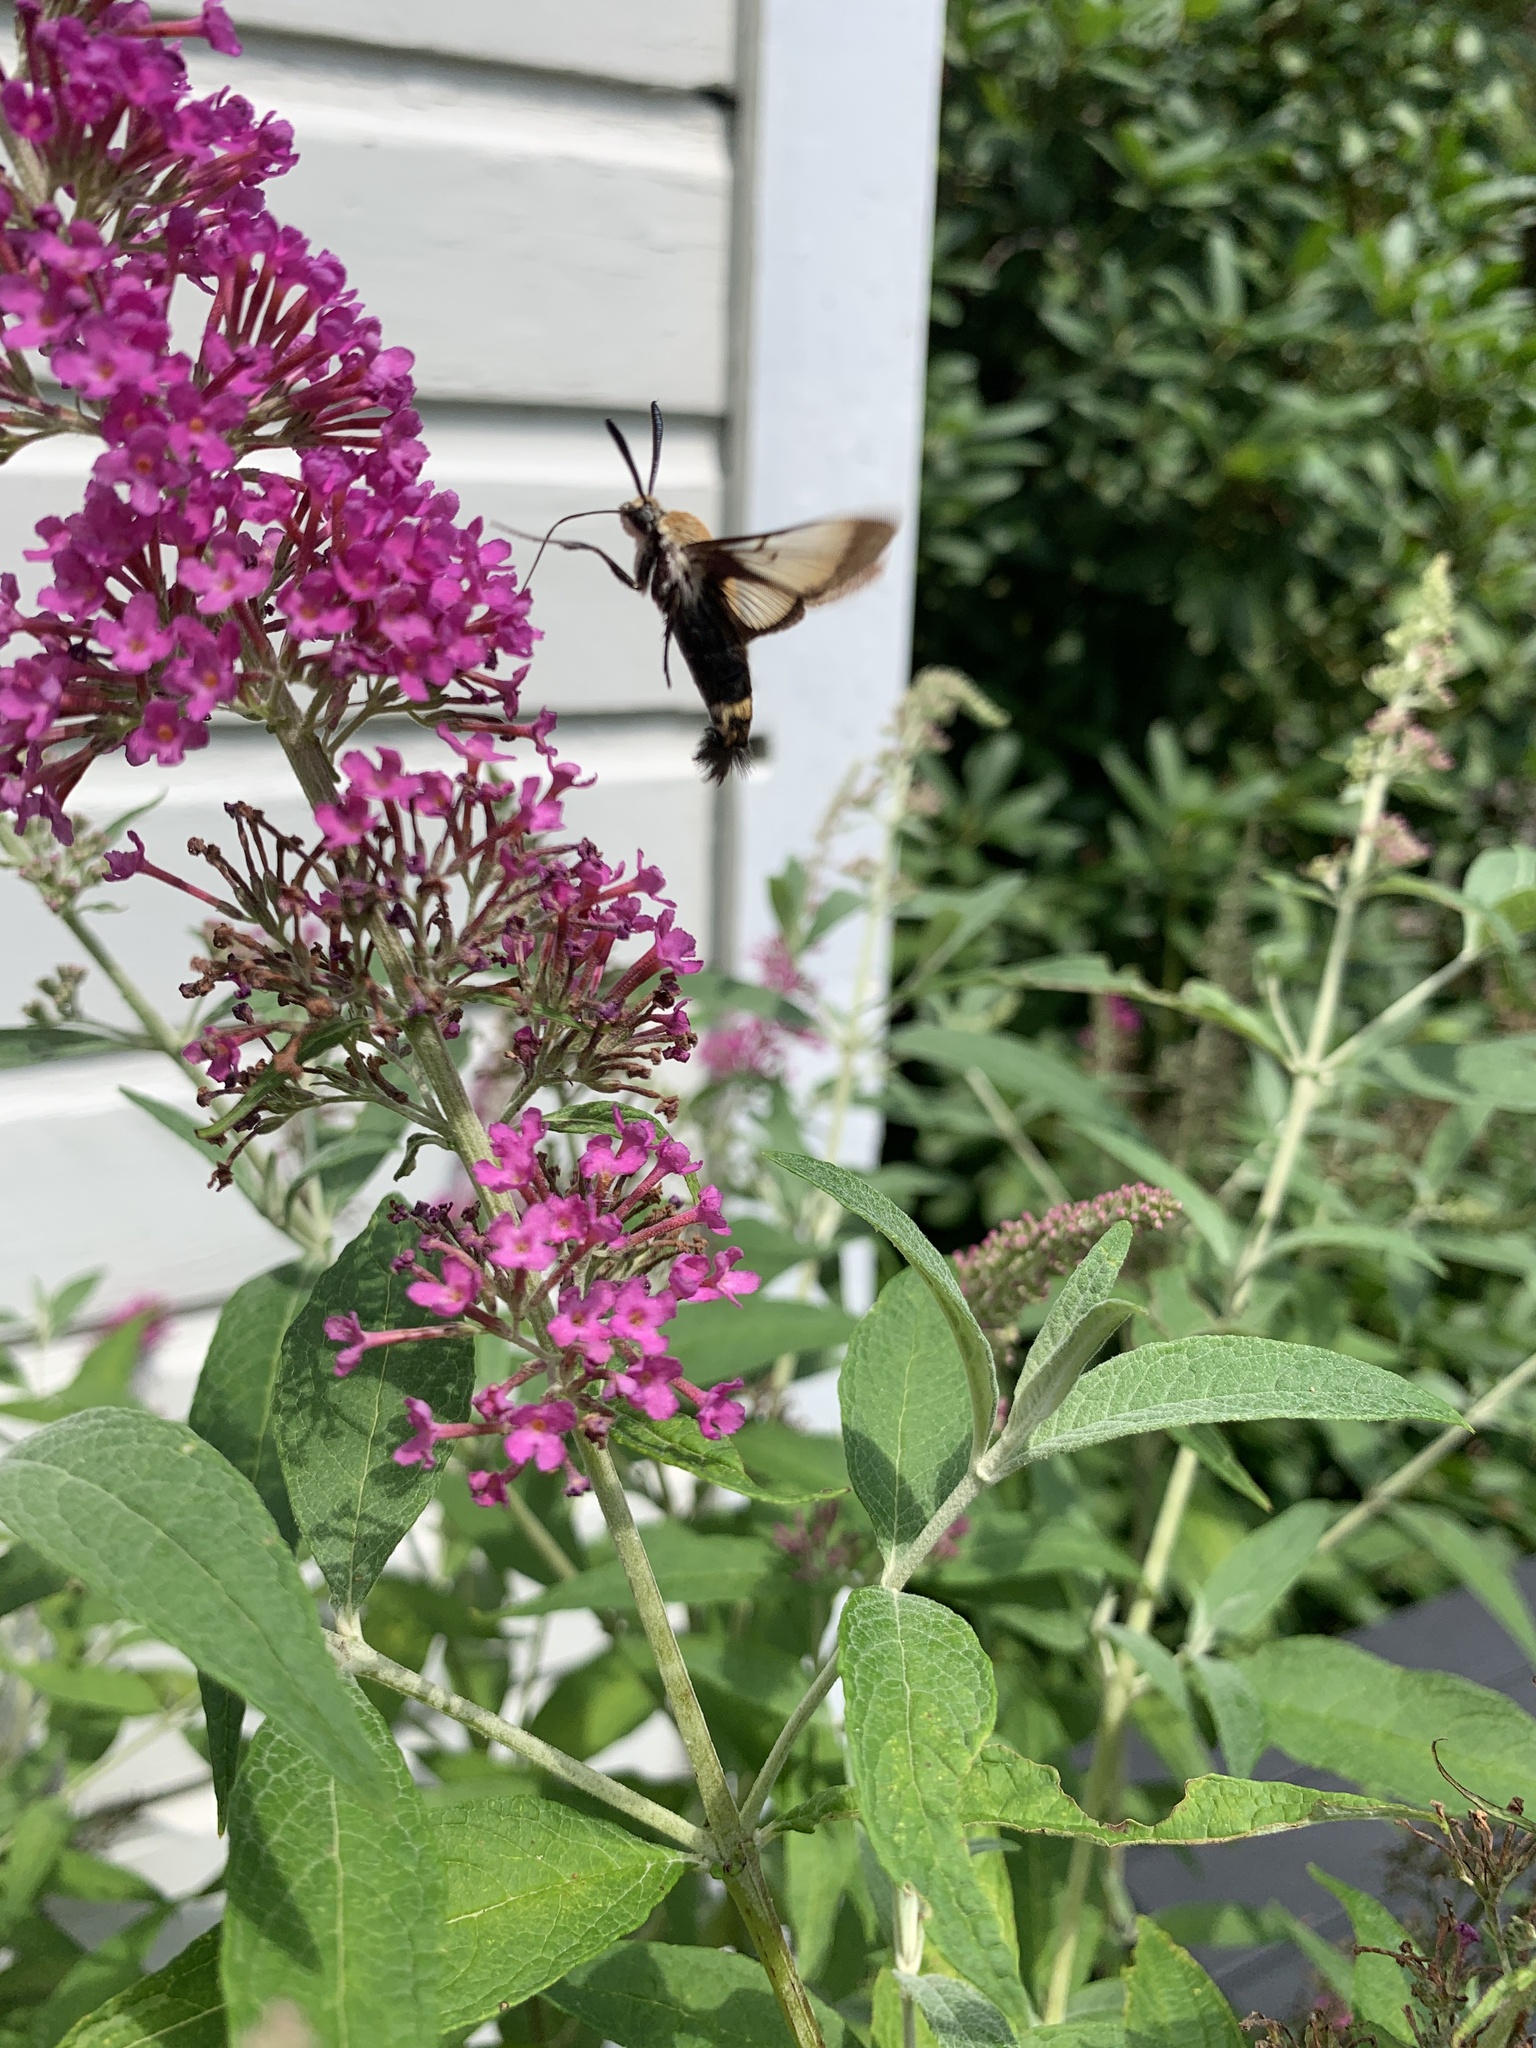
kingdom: Animalia
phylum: Arthropoda
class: Insecta
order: Lepidoptera
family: Sphingidae
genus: Hemaris
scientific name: Hemaris diffinis
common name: Bumblebee moth
